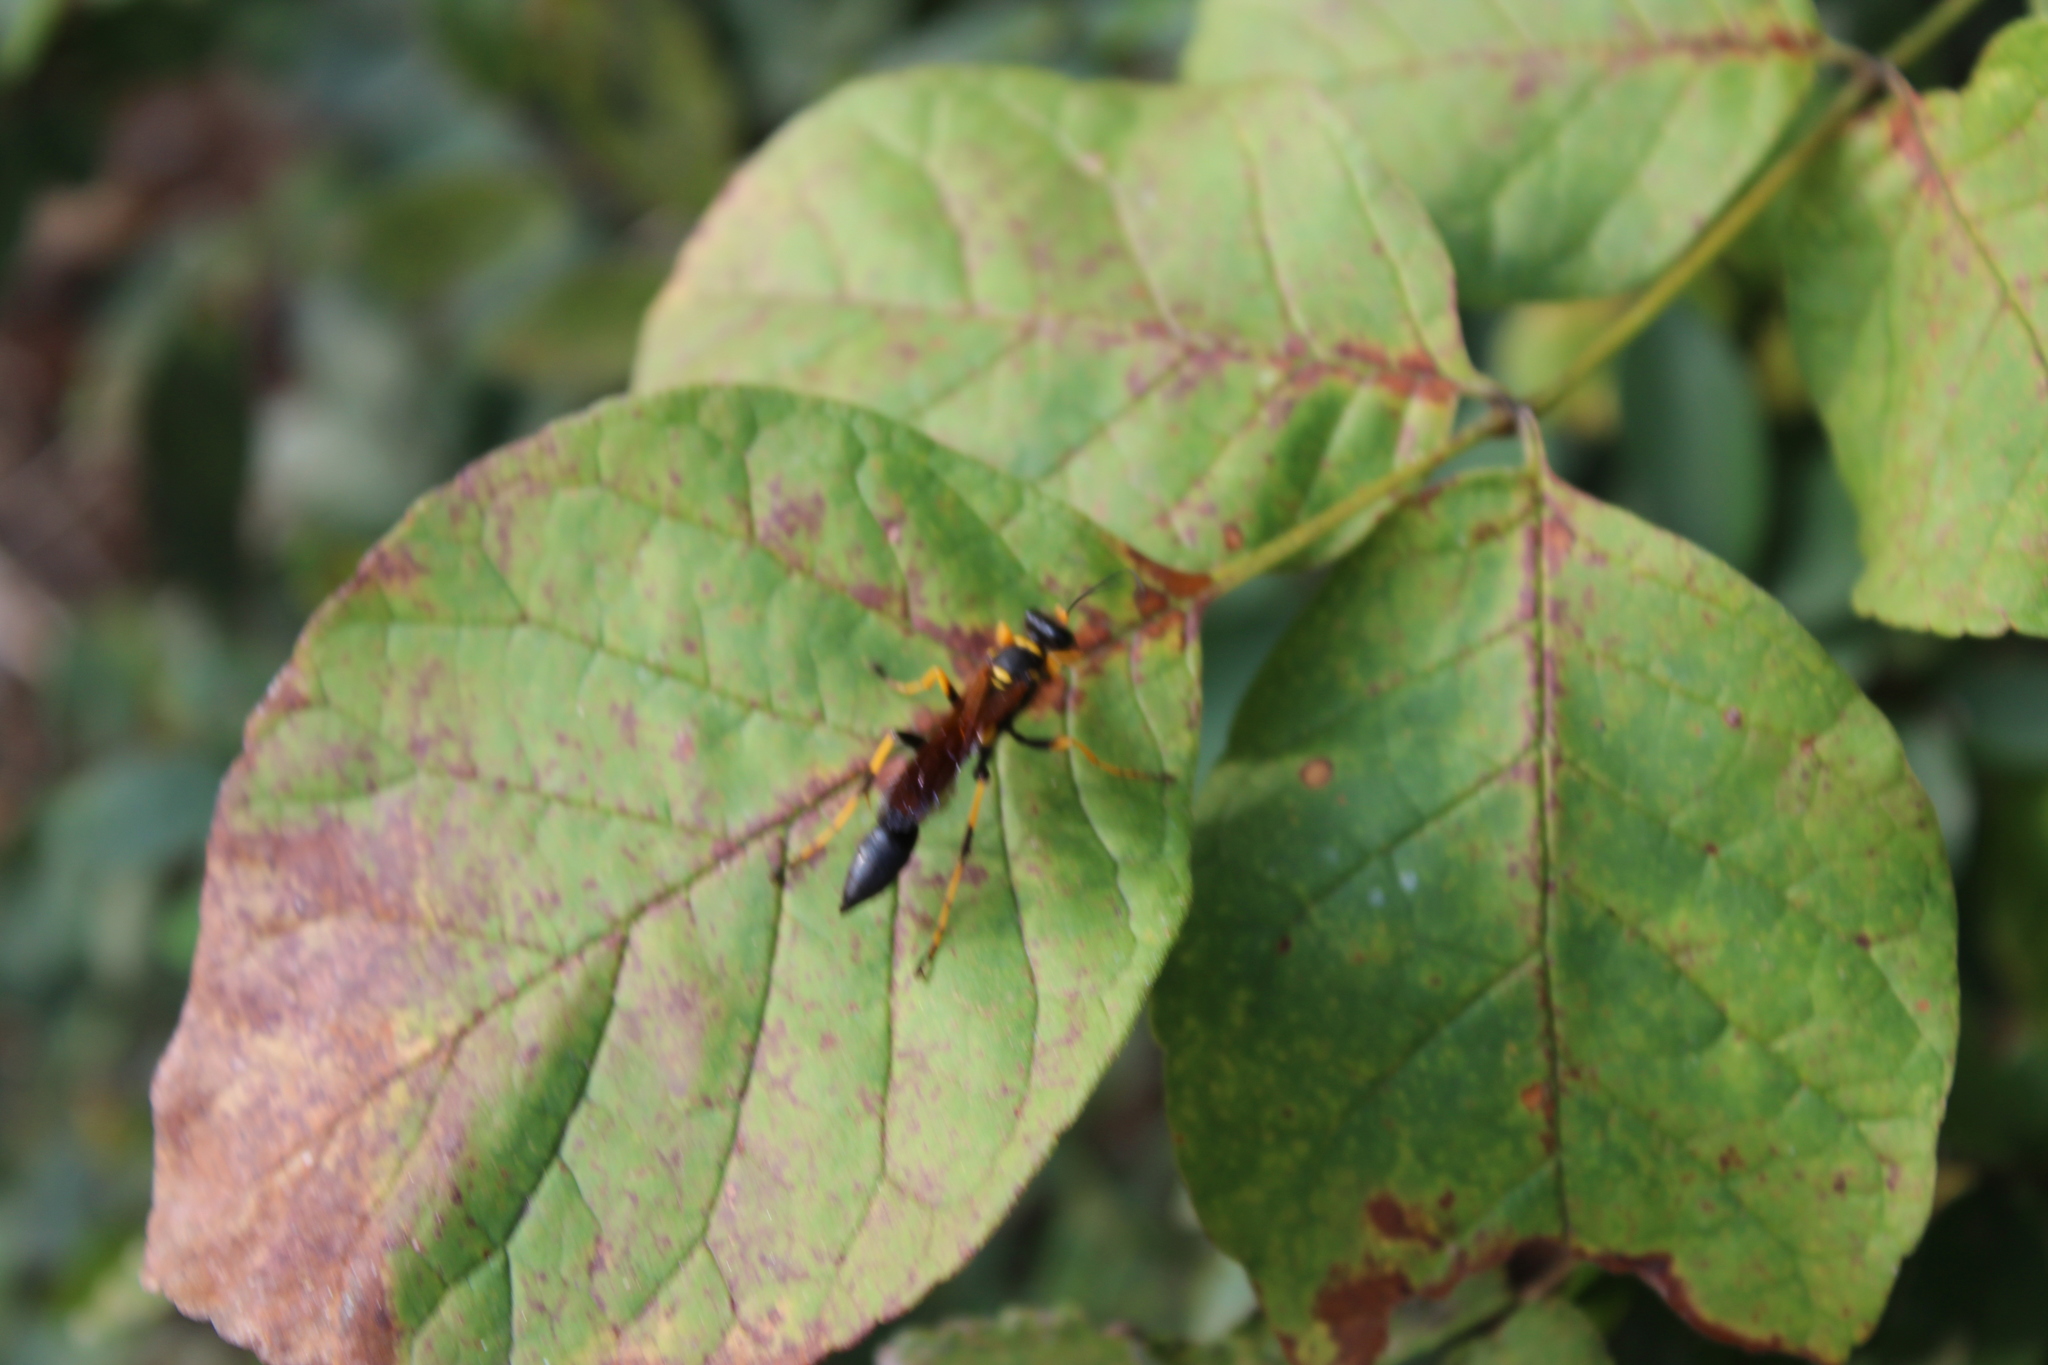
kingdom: Animalia
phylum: Arthropoda
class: Insecta
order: Hymenoptera
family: Sphecidae
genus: Sceliphron
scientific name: Sceliphron caementarium
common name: Mud dauber
